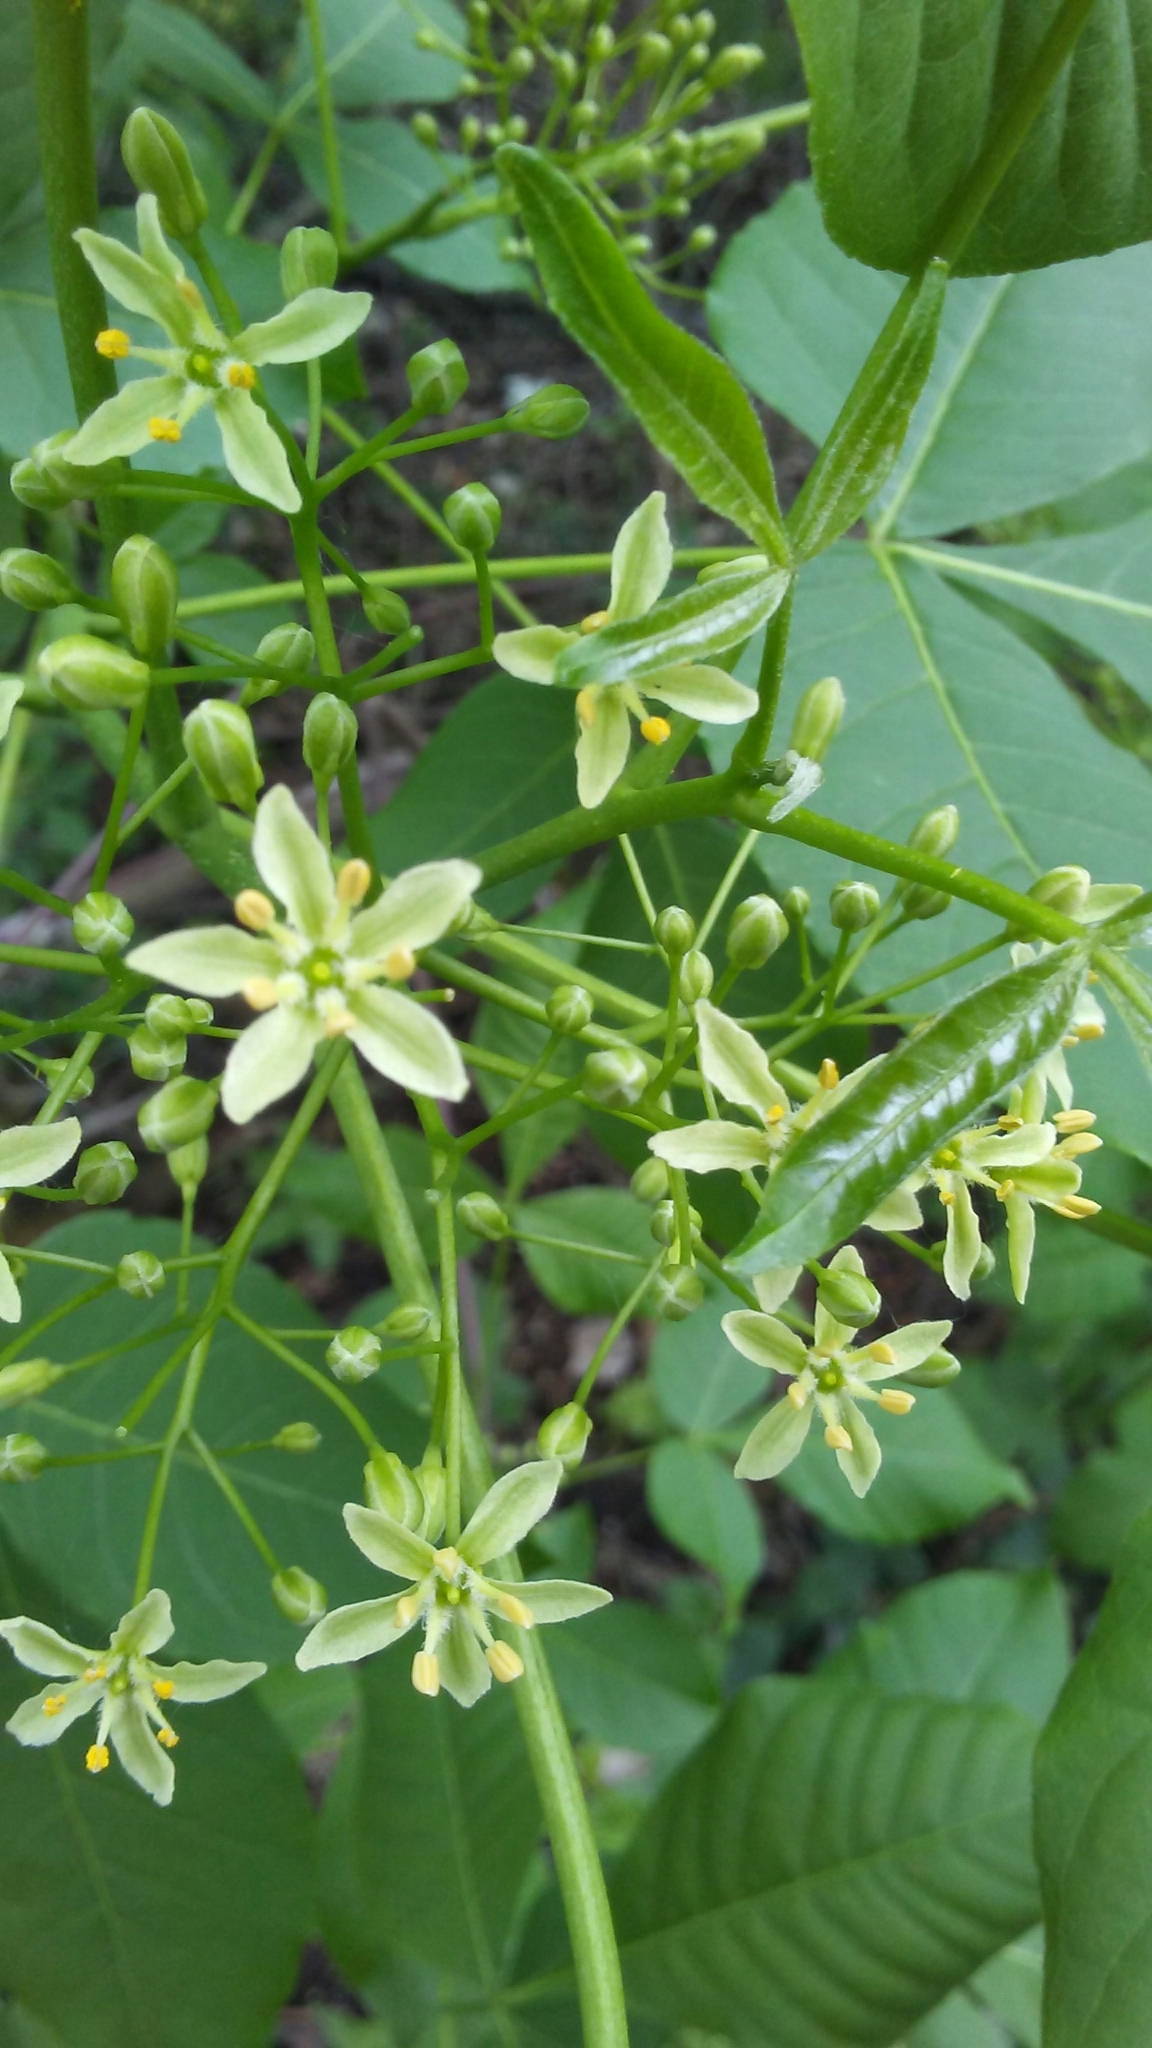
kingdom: Plantae
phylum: Tracheophyta
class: Magnoliopsida
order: Sapindales
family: Rutaceae
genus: Ptelea
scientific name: Ptelea trifoliata
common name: Common hop-tree
